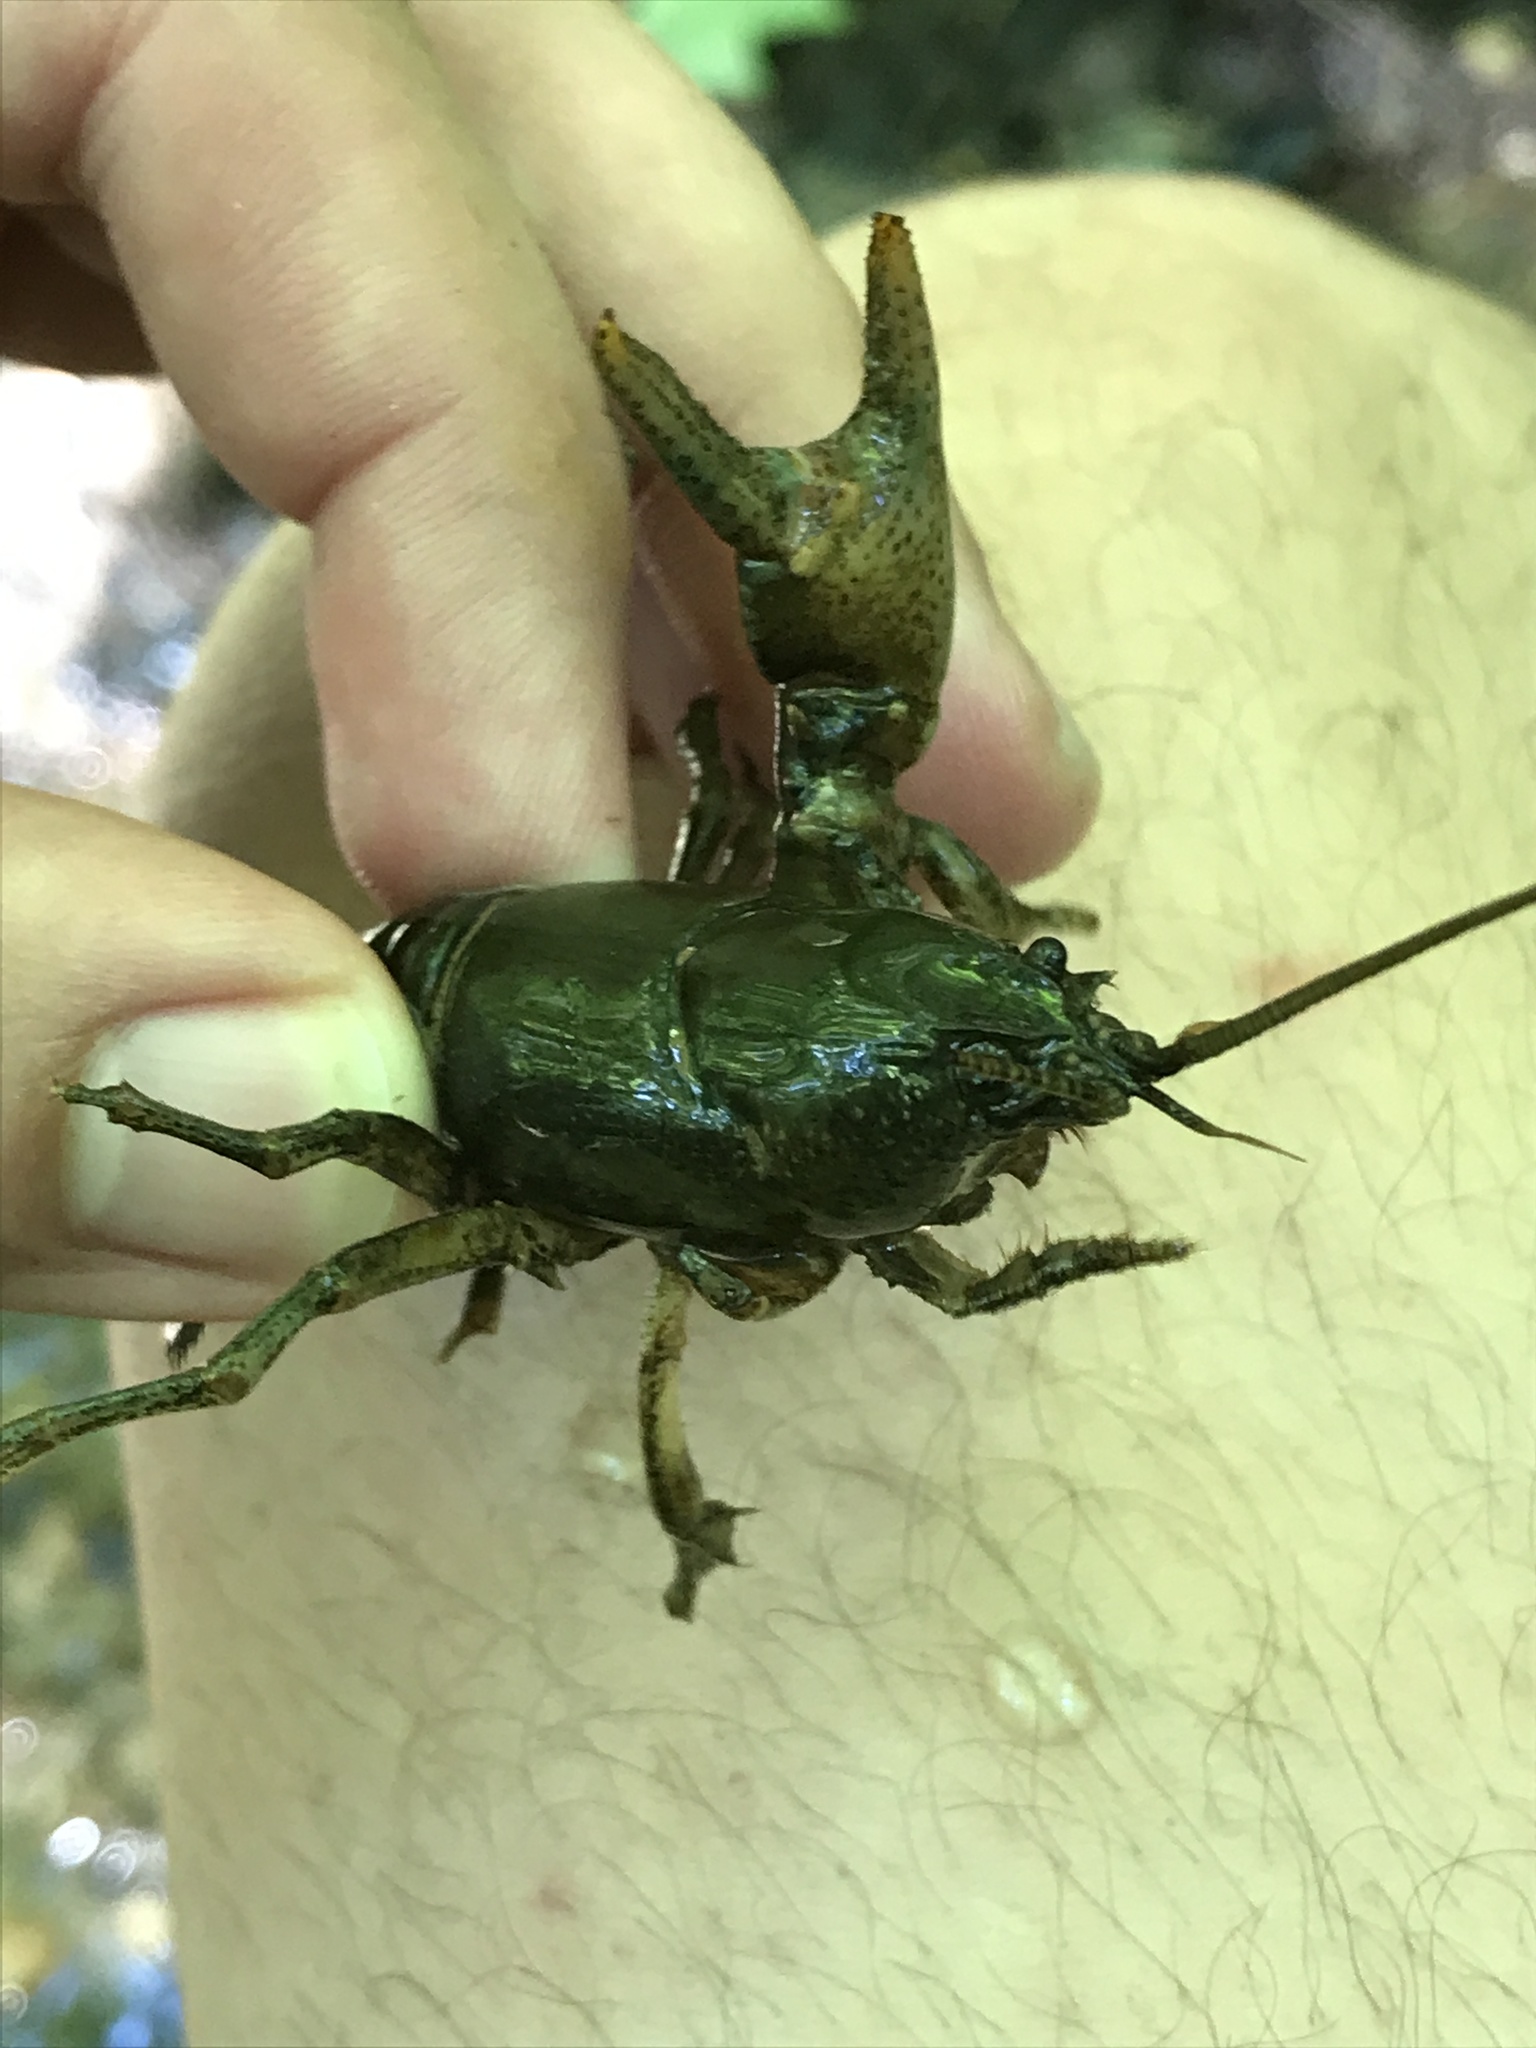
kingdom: Animalia
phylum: Arthropoda
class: Malacostraca
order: Decapoda
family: Cambaridae
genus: Cambarus
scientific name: Cambarus bartonii
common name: Appalachian brook crayfish
